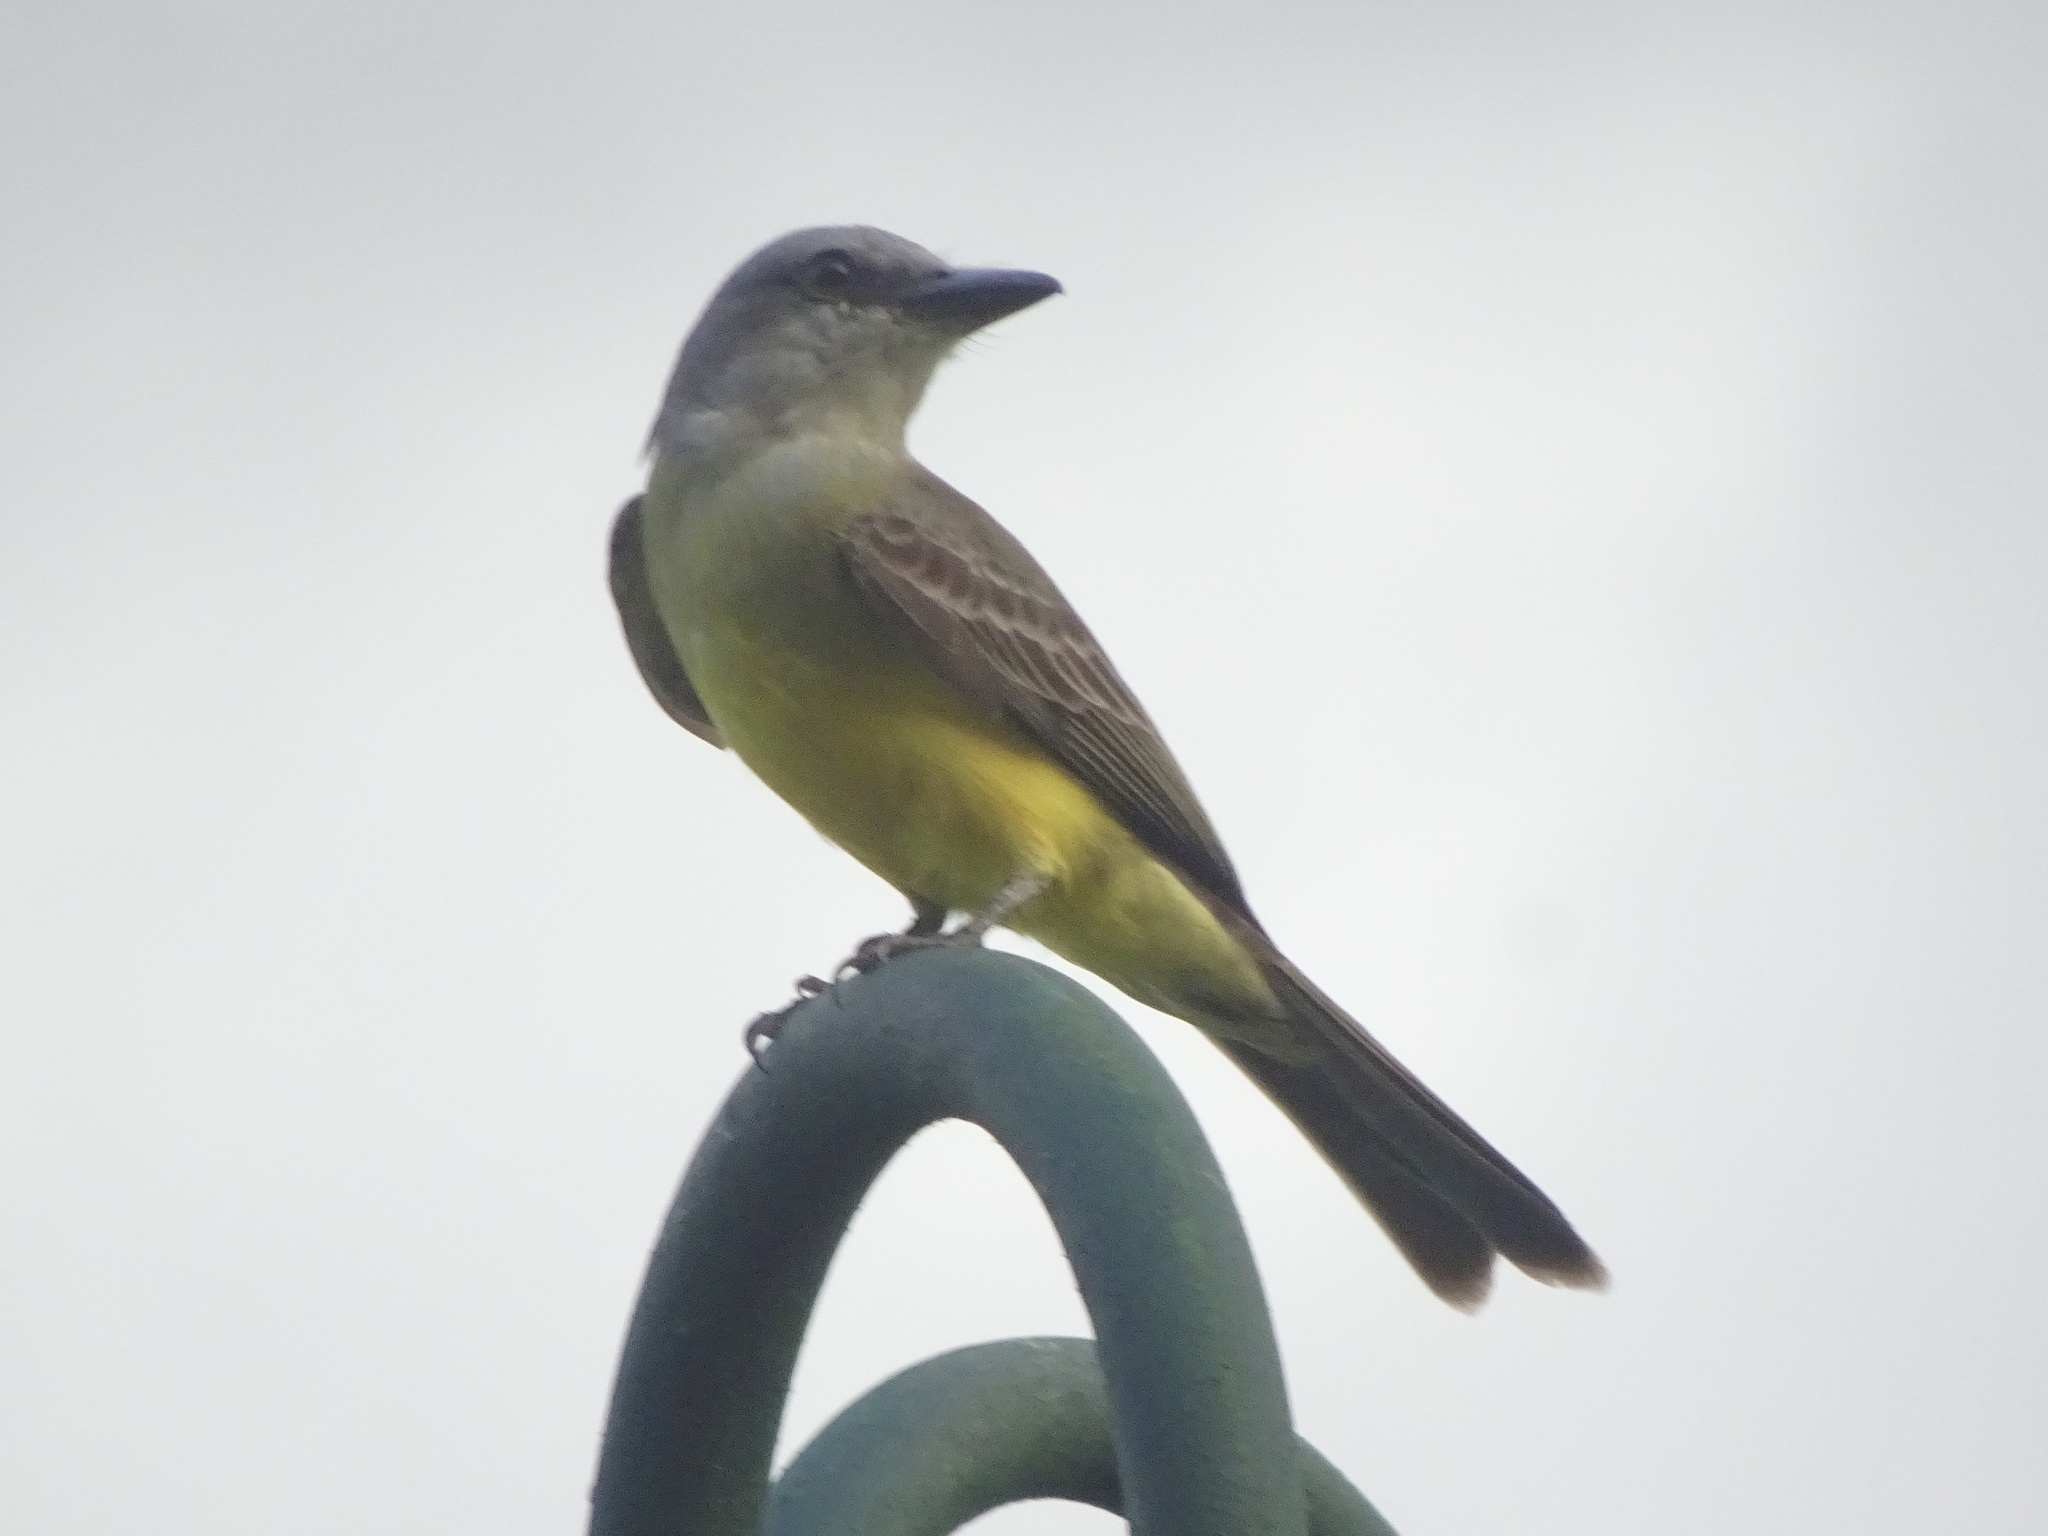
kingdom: Animalia
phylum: Chordata
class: Aves
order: Passeriformes
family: Tyrannidae
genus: Tyrannus
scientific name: Tyrannus melancholicus
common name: Tropical kingbird
